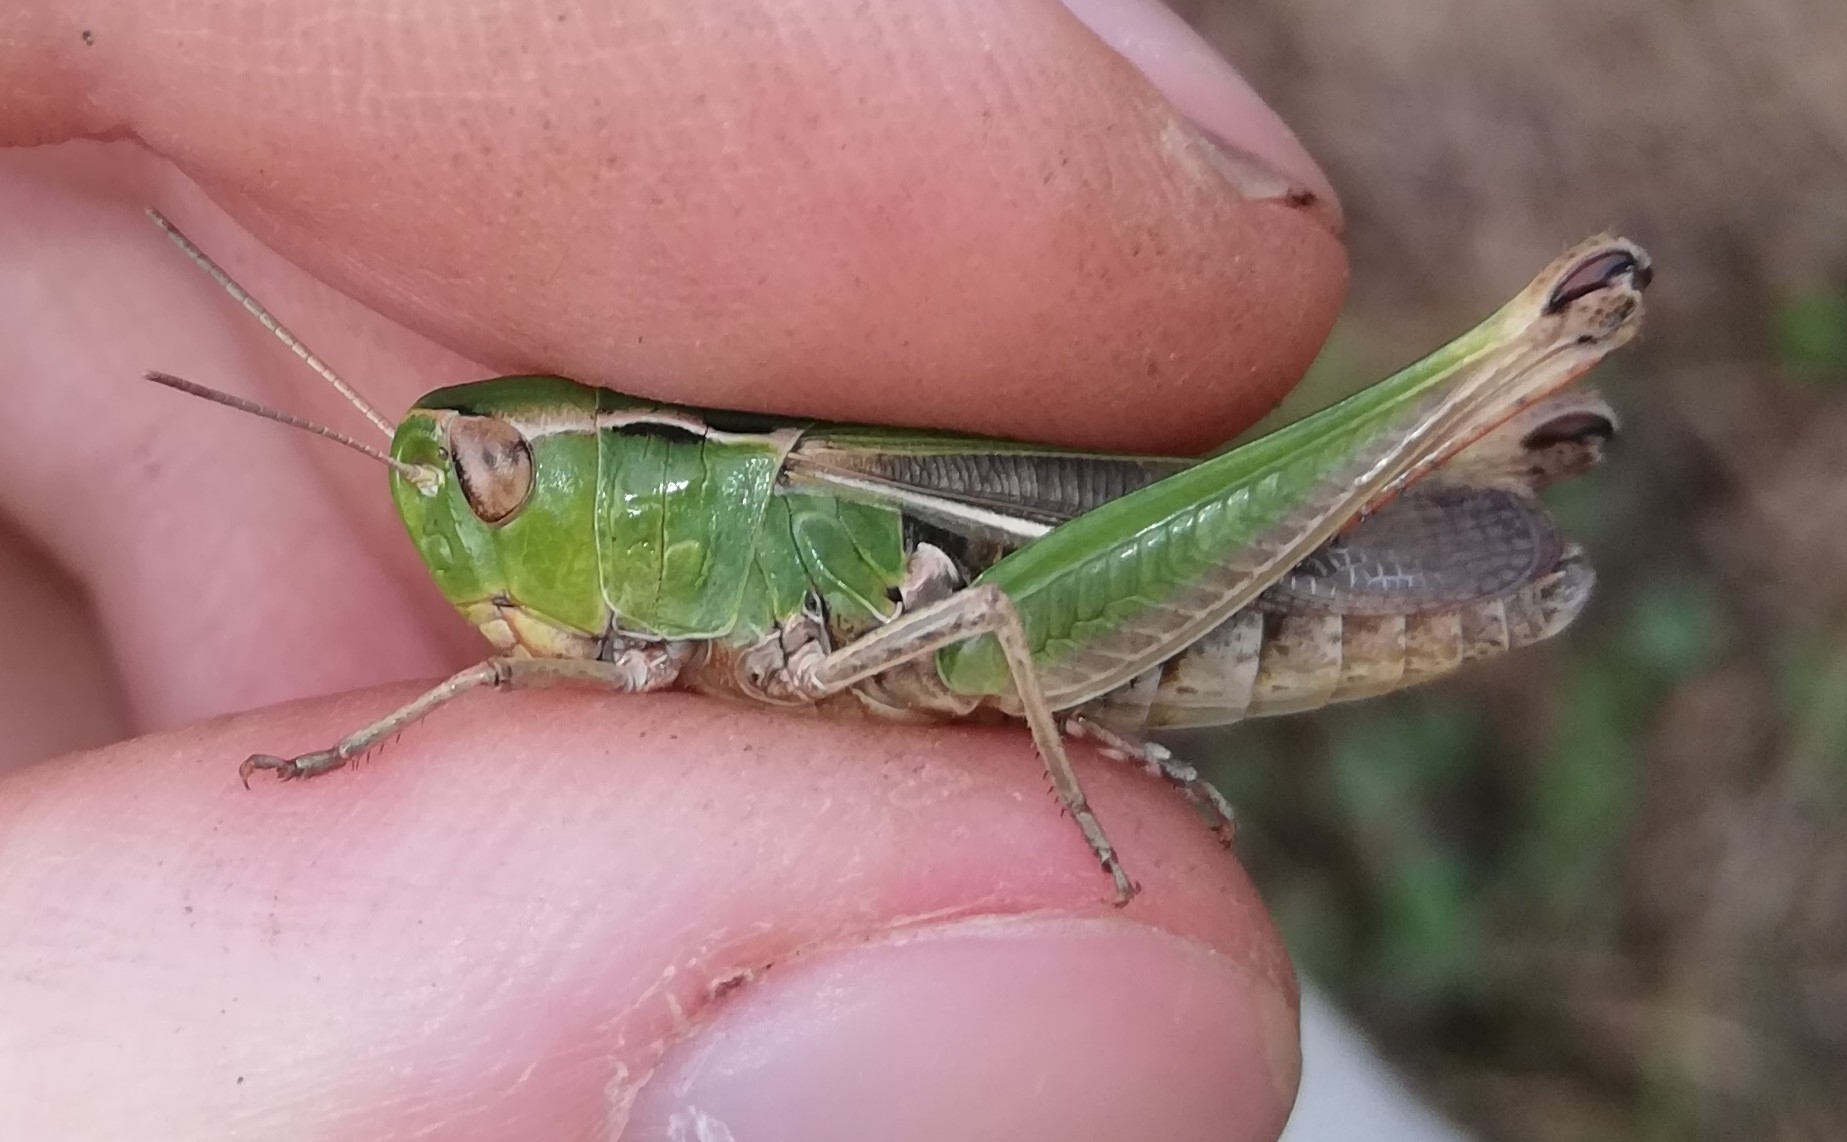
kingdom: Animalia
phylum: Arthropoda
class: Insecta
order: Orthoptera
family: Acrididae
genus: Stenobothrus
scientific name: Stenobothrus lineatus
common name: Stripe-winged grasshopper
